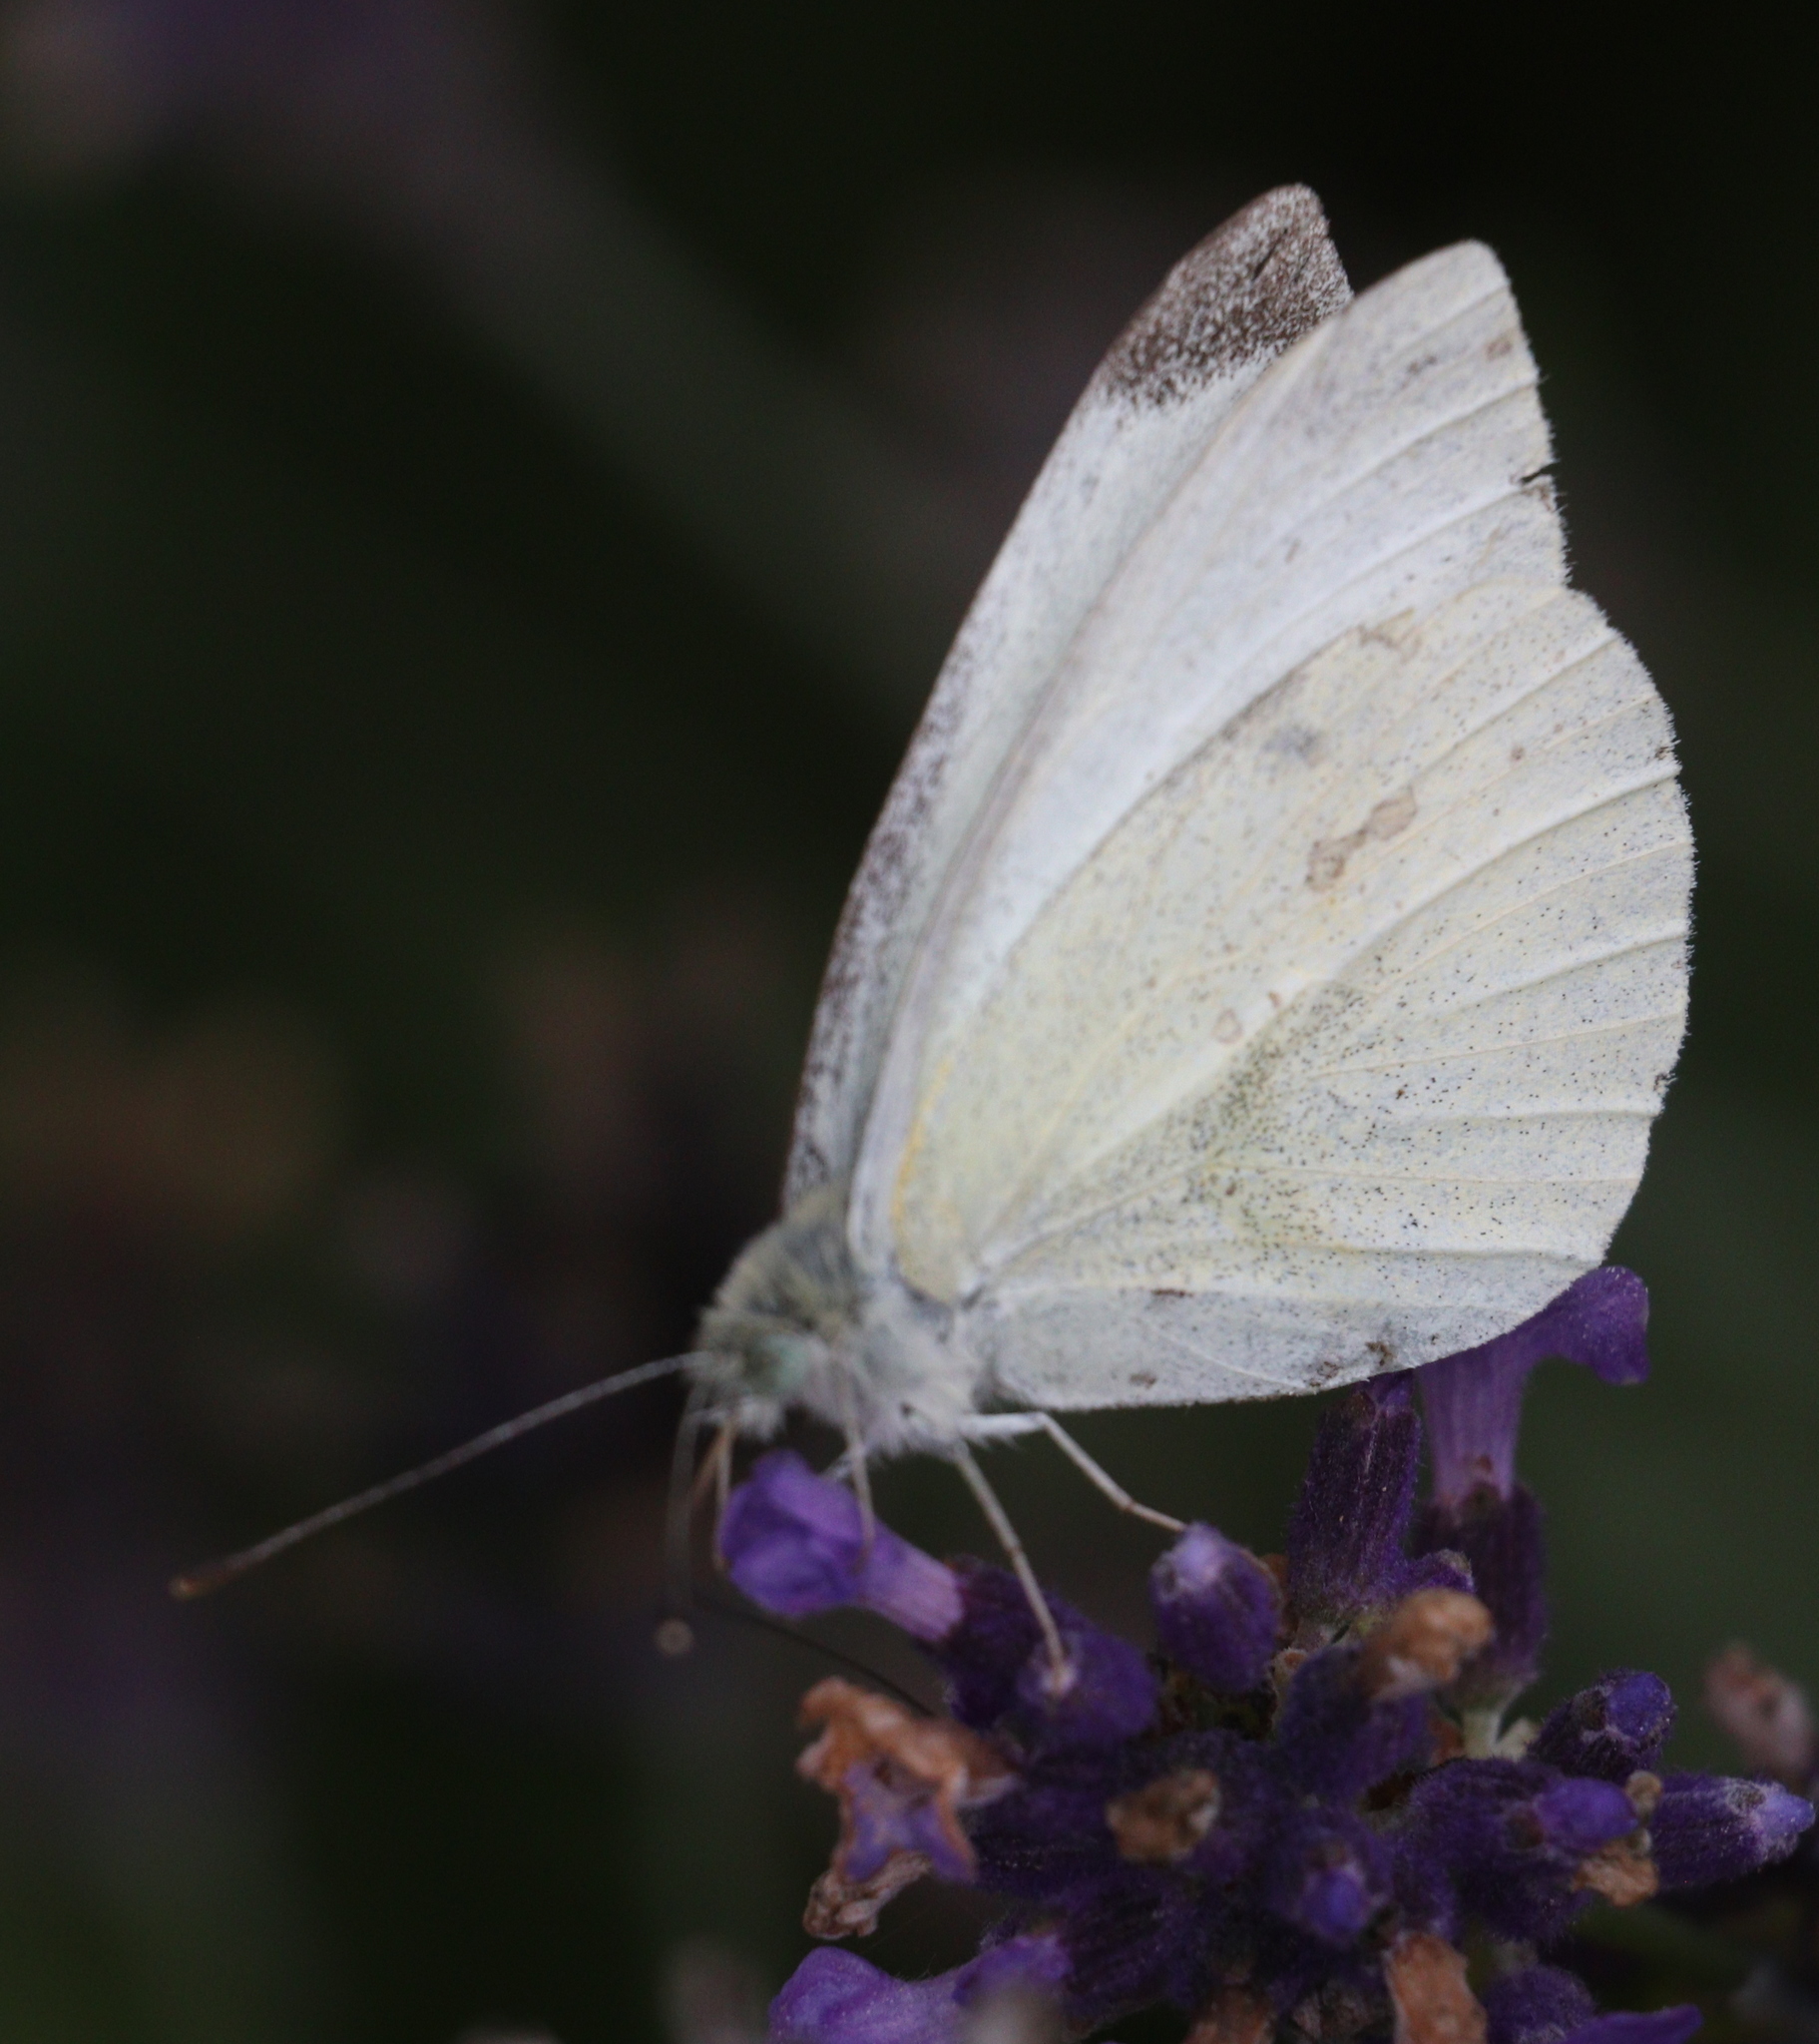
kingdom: Animalia
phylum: Arthropoda
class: Insecta
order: Lepidoptera
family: Pieridae
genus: Pieris
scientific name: Pieris rapae
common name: Small white
